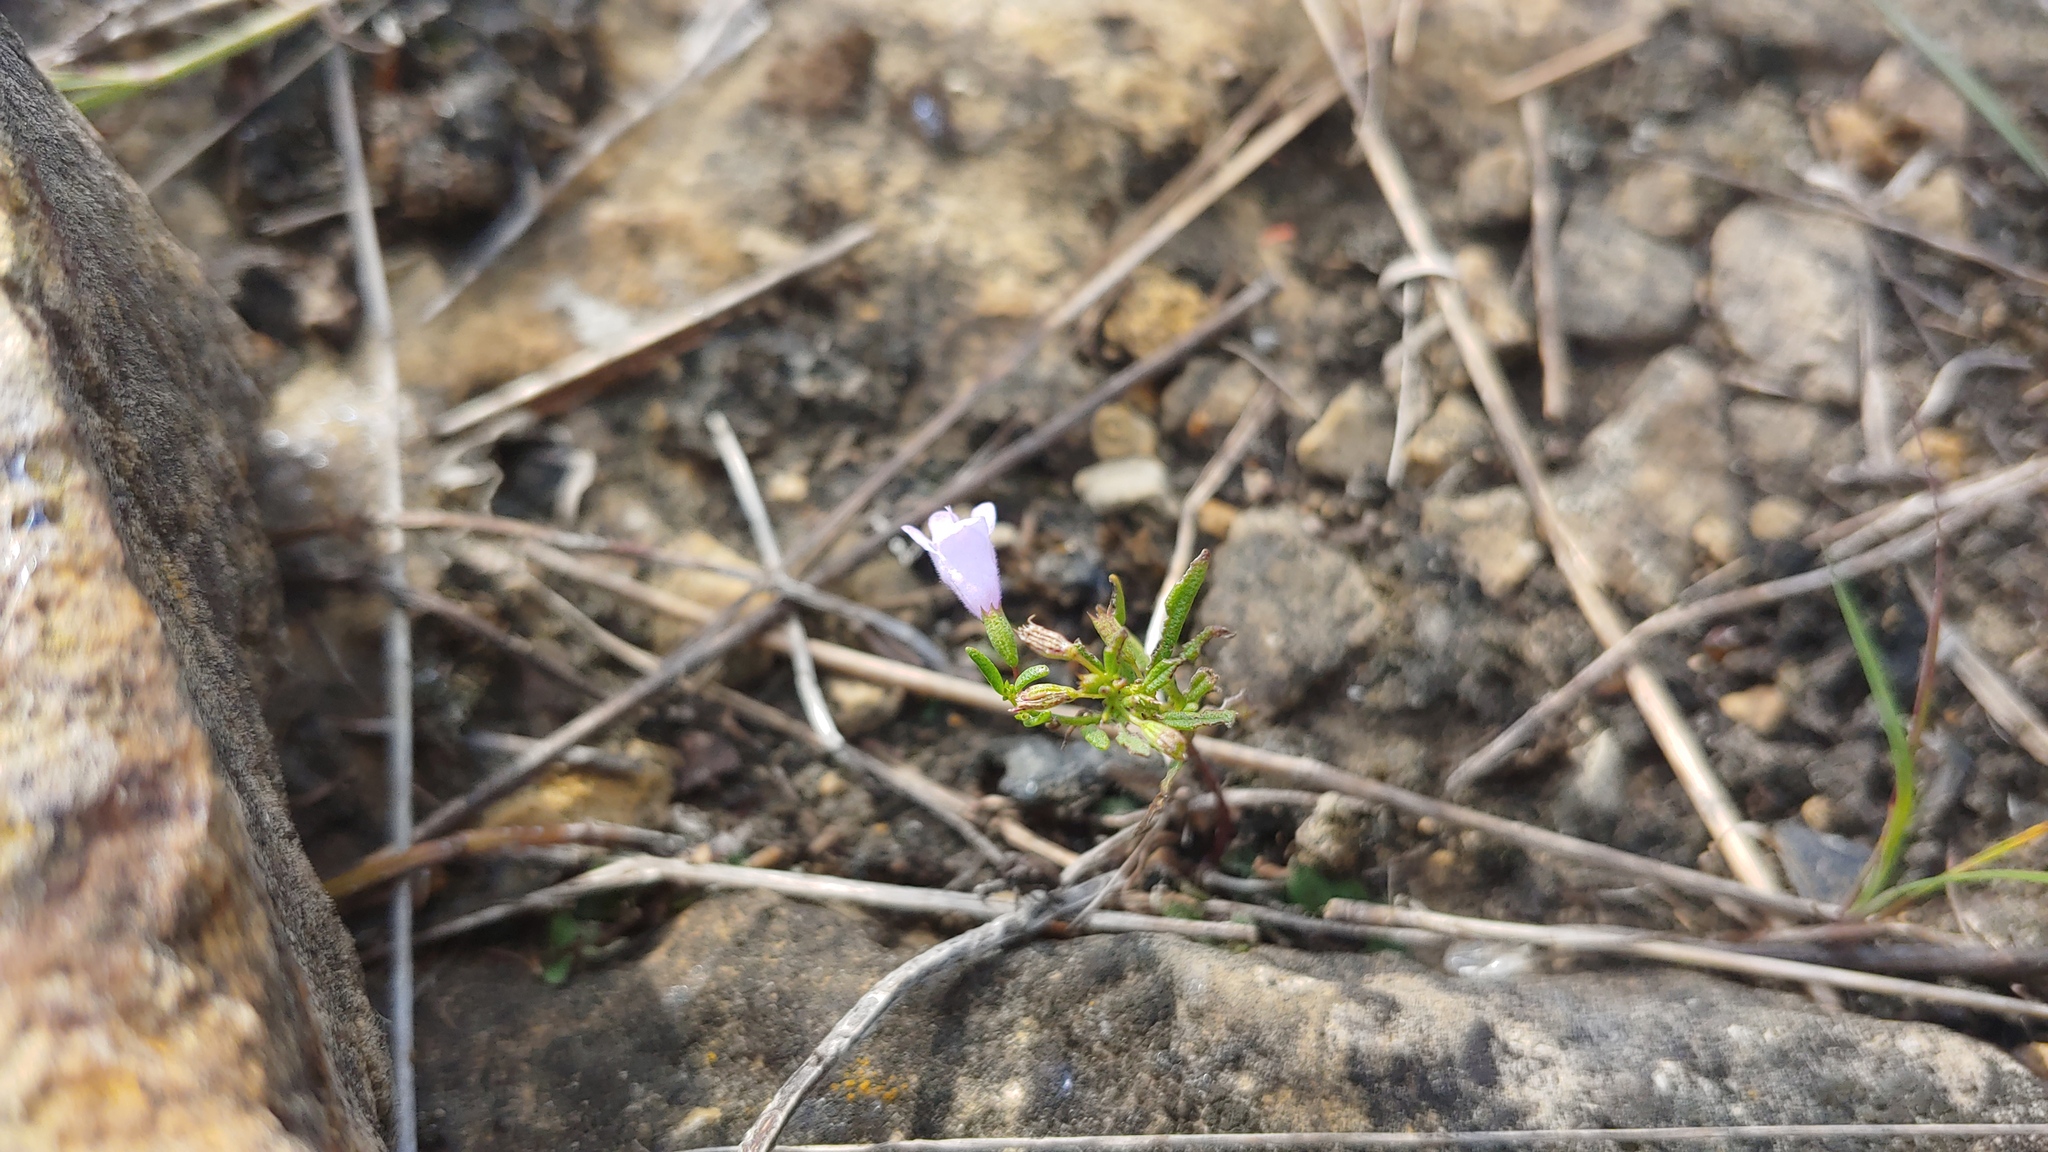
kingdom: Plantae
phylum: Tracheophyta
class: Magnoliopsida
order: Lamiales
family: Lamiaceae
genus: Clinopodium
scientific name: Clinopodium arkansanum
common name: Limestone calamint
